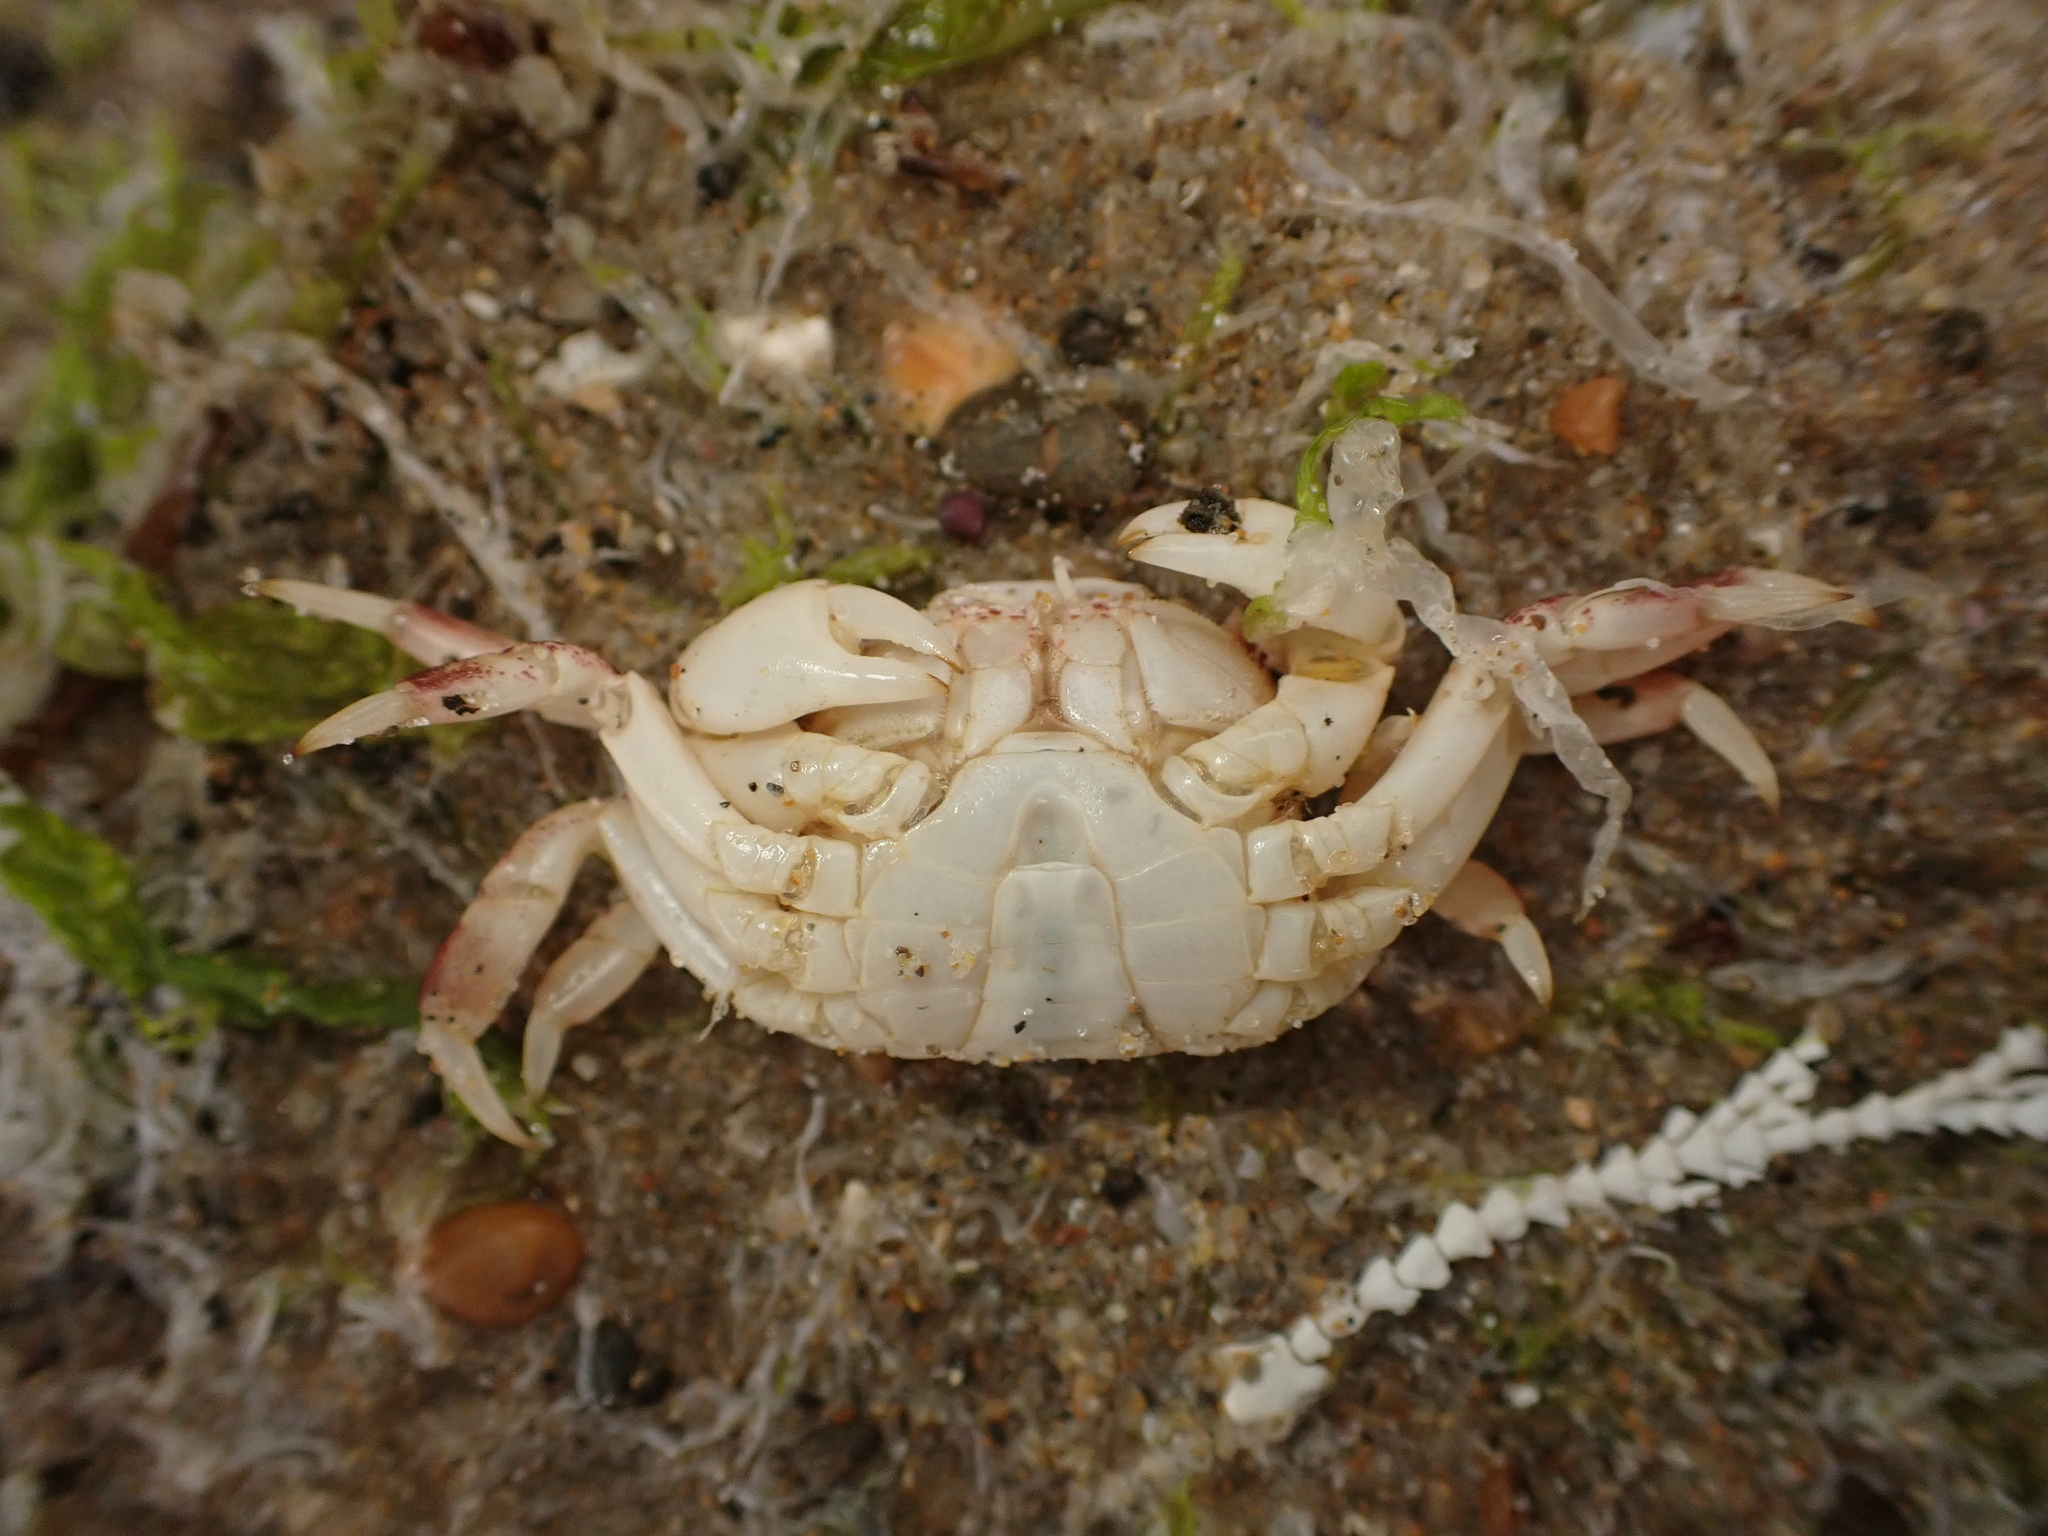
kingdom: Animalia
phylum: Arthropoda
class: Malacostraca
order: Decapoda
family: Varunidae
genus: Hemigrapsus
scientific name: Hemigrapsus crenulatus
